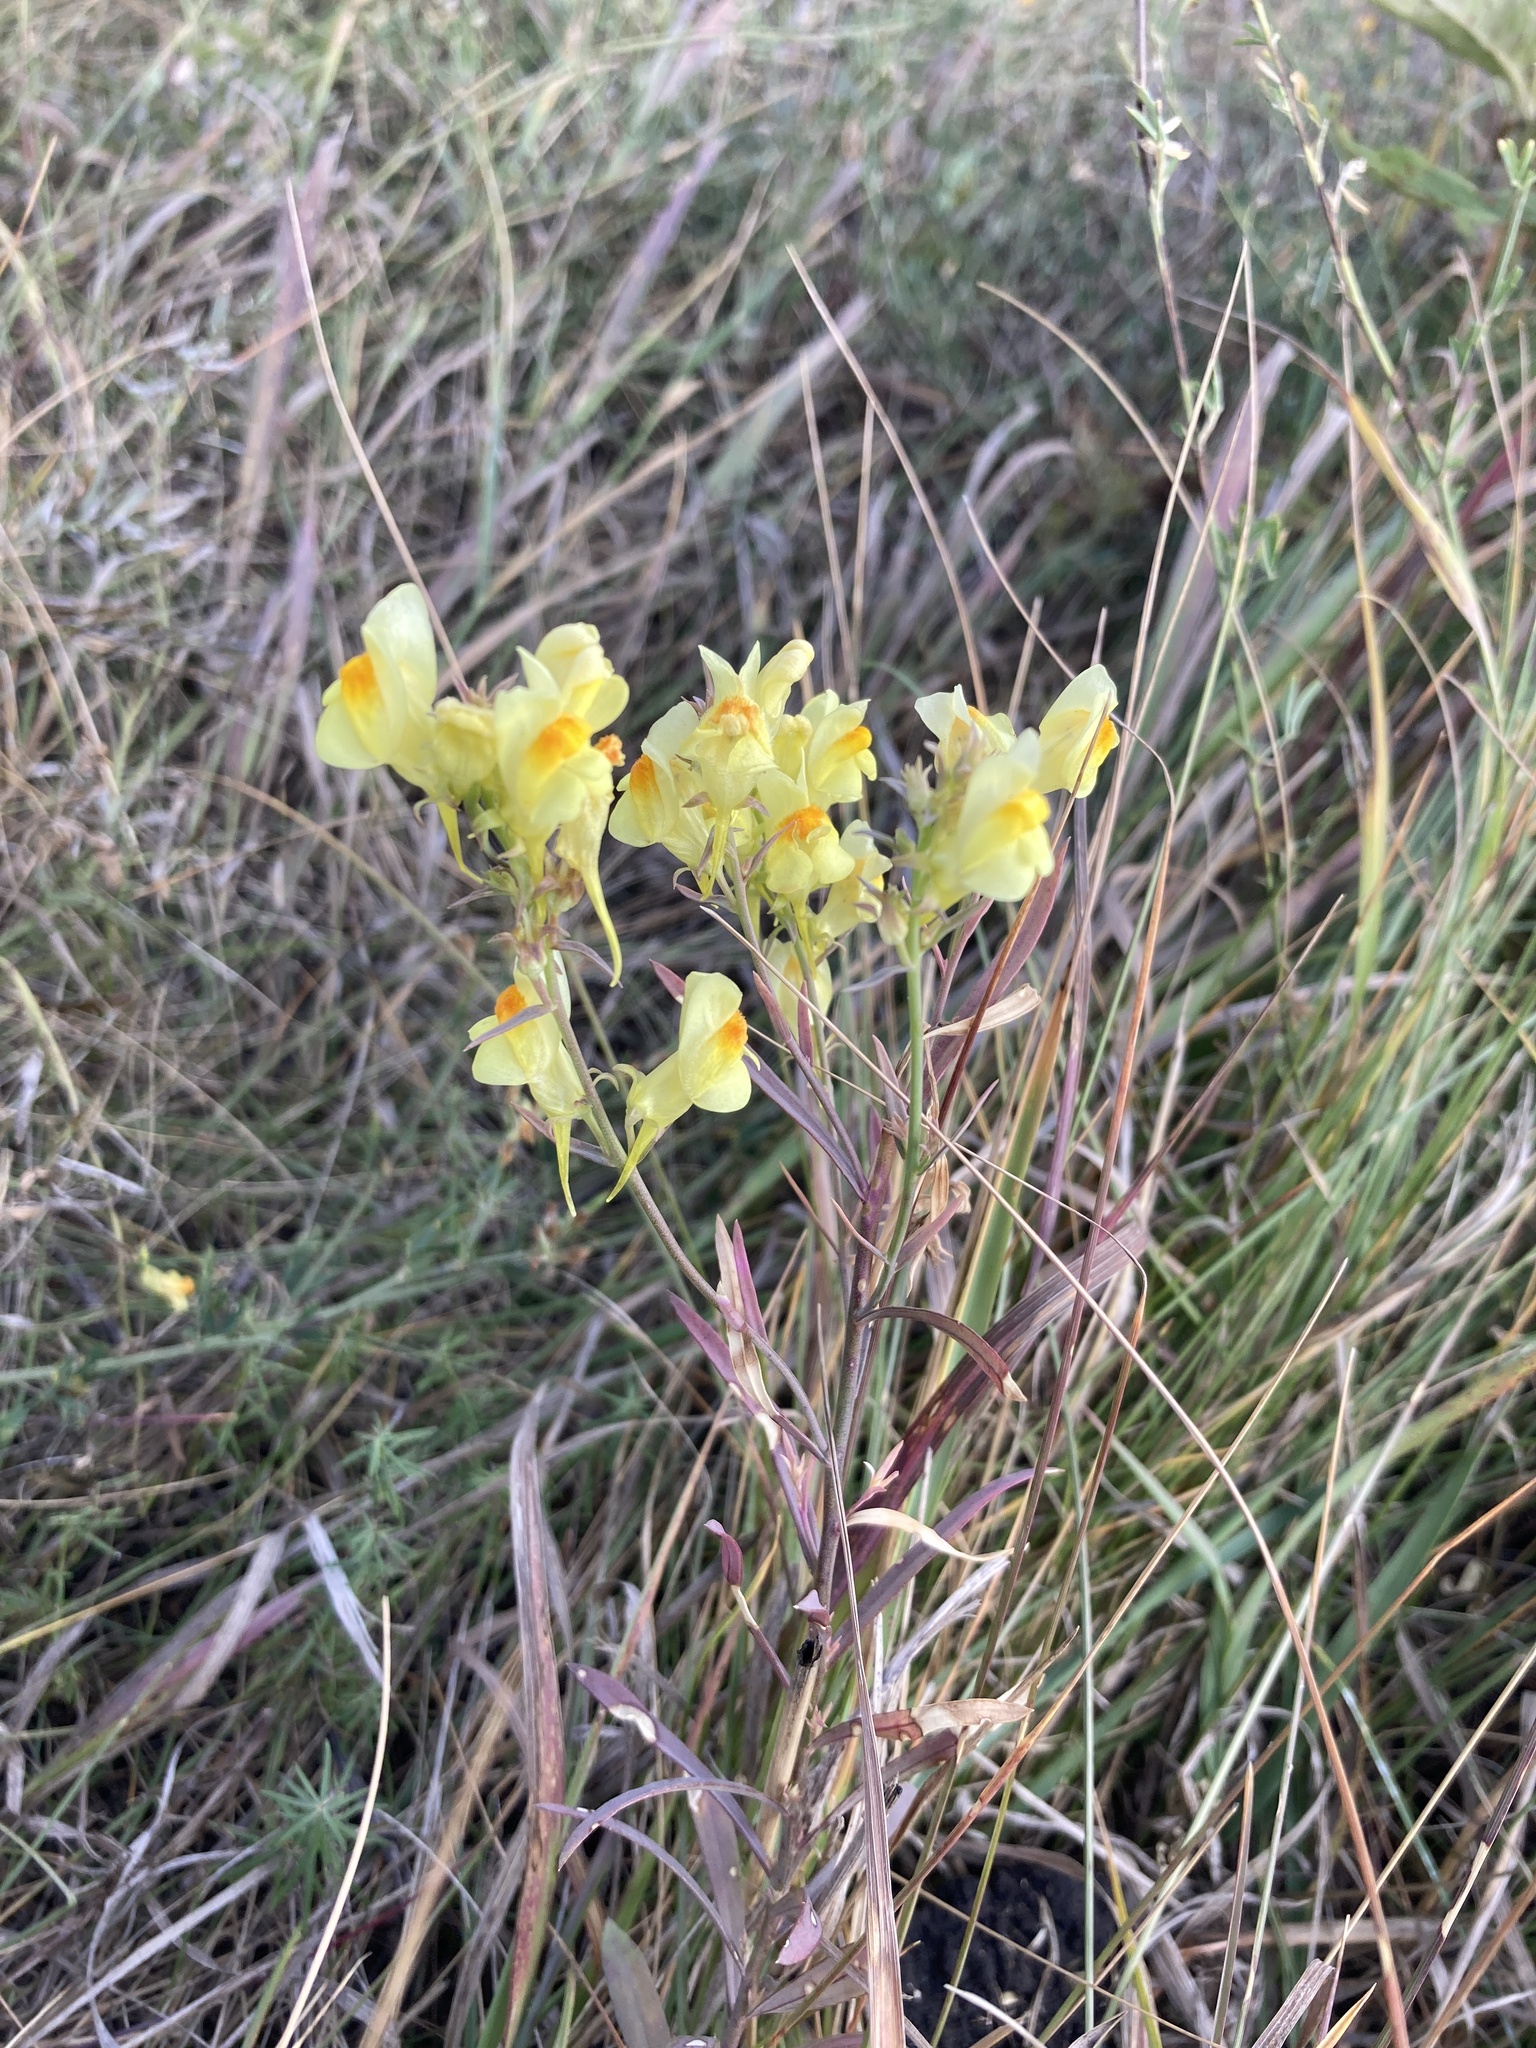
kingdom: Plantae
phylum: Tracheophyta
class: Magnoliopsida
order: Lamiales
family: Plantaginaceae
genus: Linaria
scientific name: Linaria vulgaris
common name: Butter and eggs
